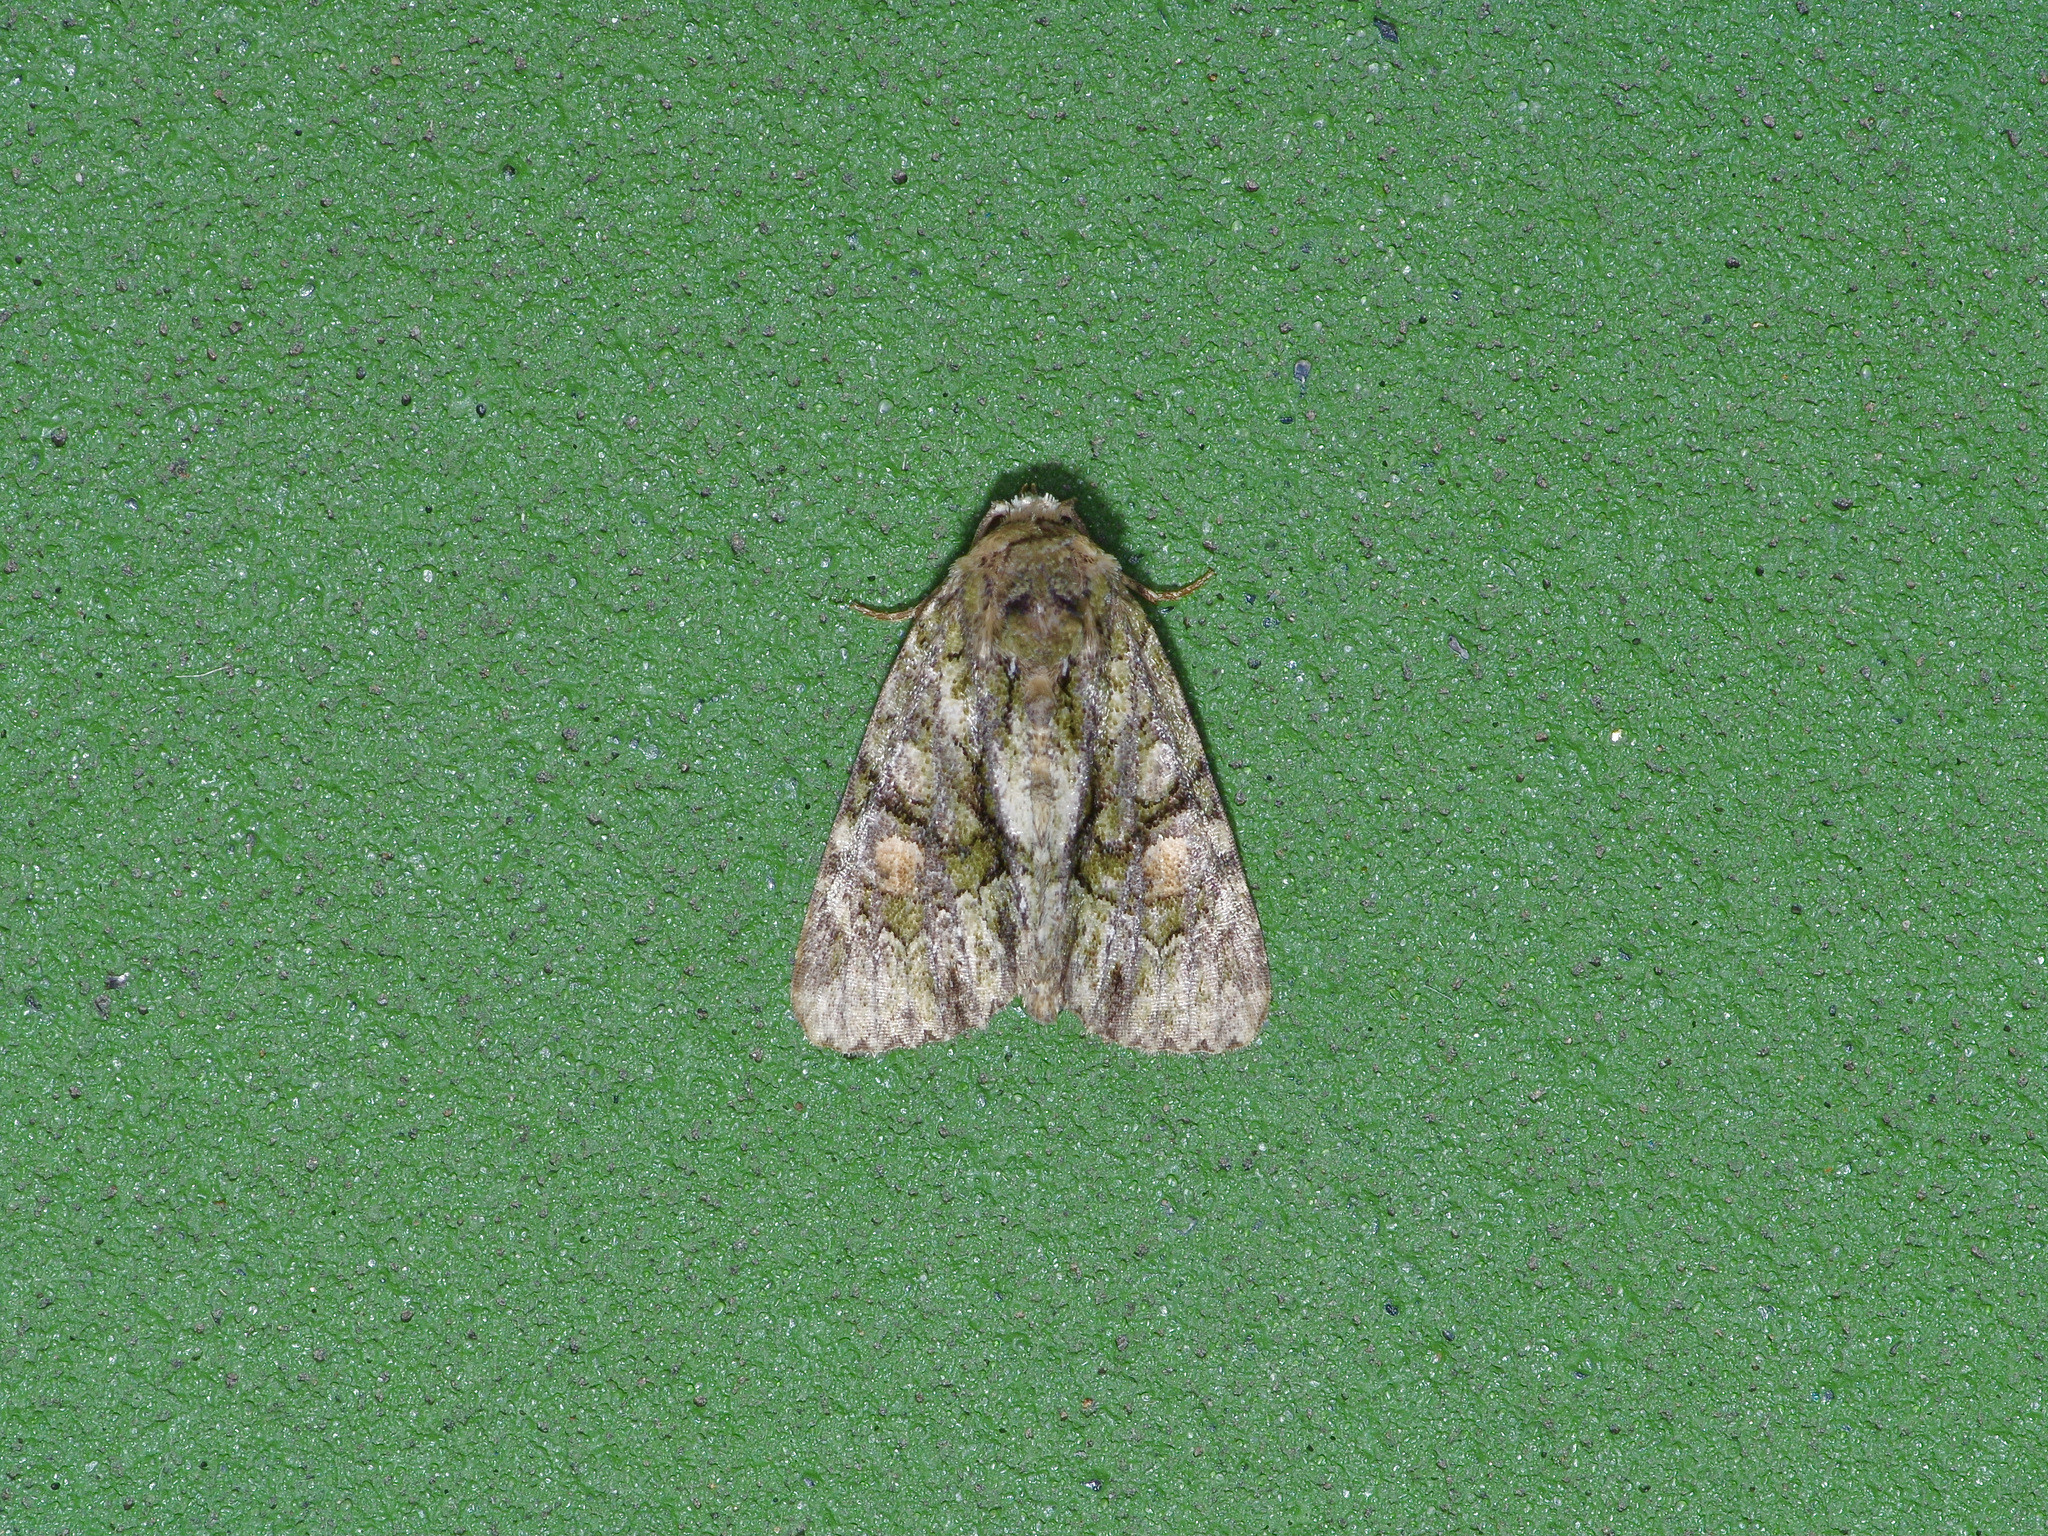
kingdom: Animalia
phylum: Arthropoda
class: Insecta
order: Lepidoptera
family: Noctuidae
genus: Phosphila
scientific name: Phosphila miselioides
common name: Spotted phosphila moth
